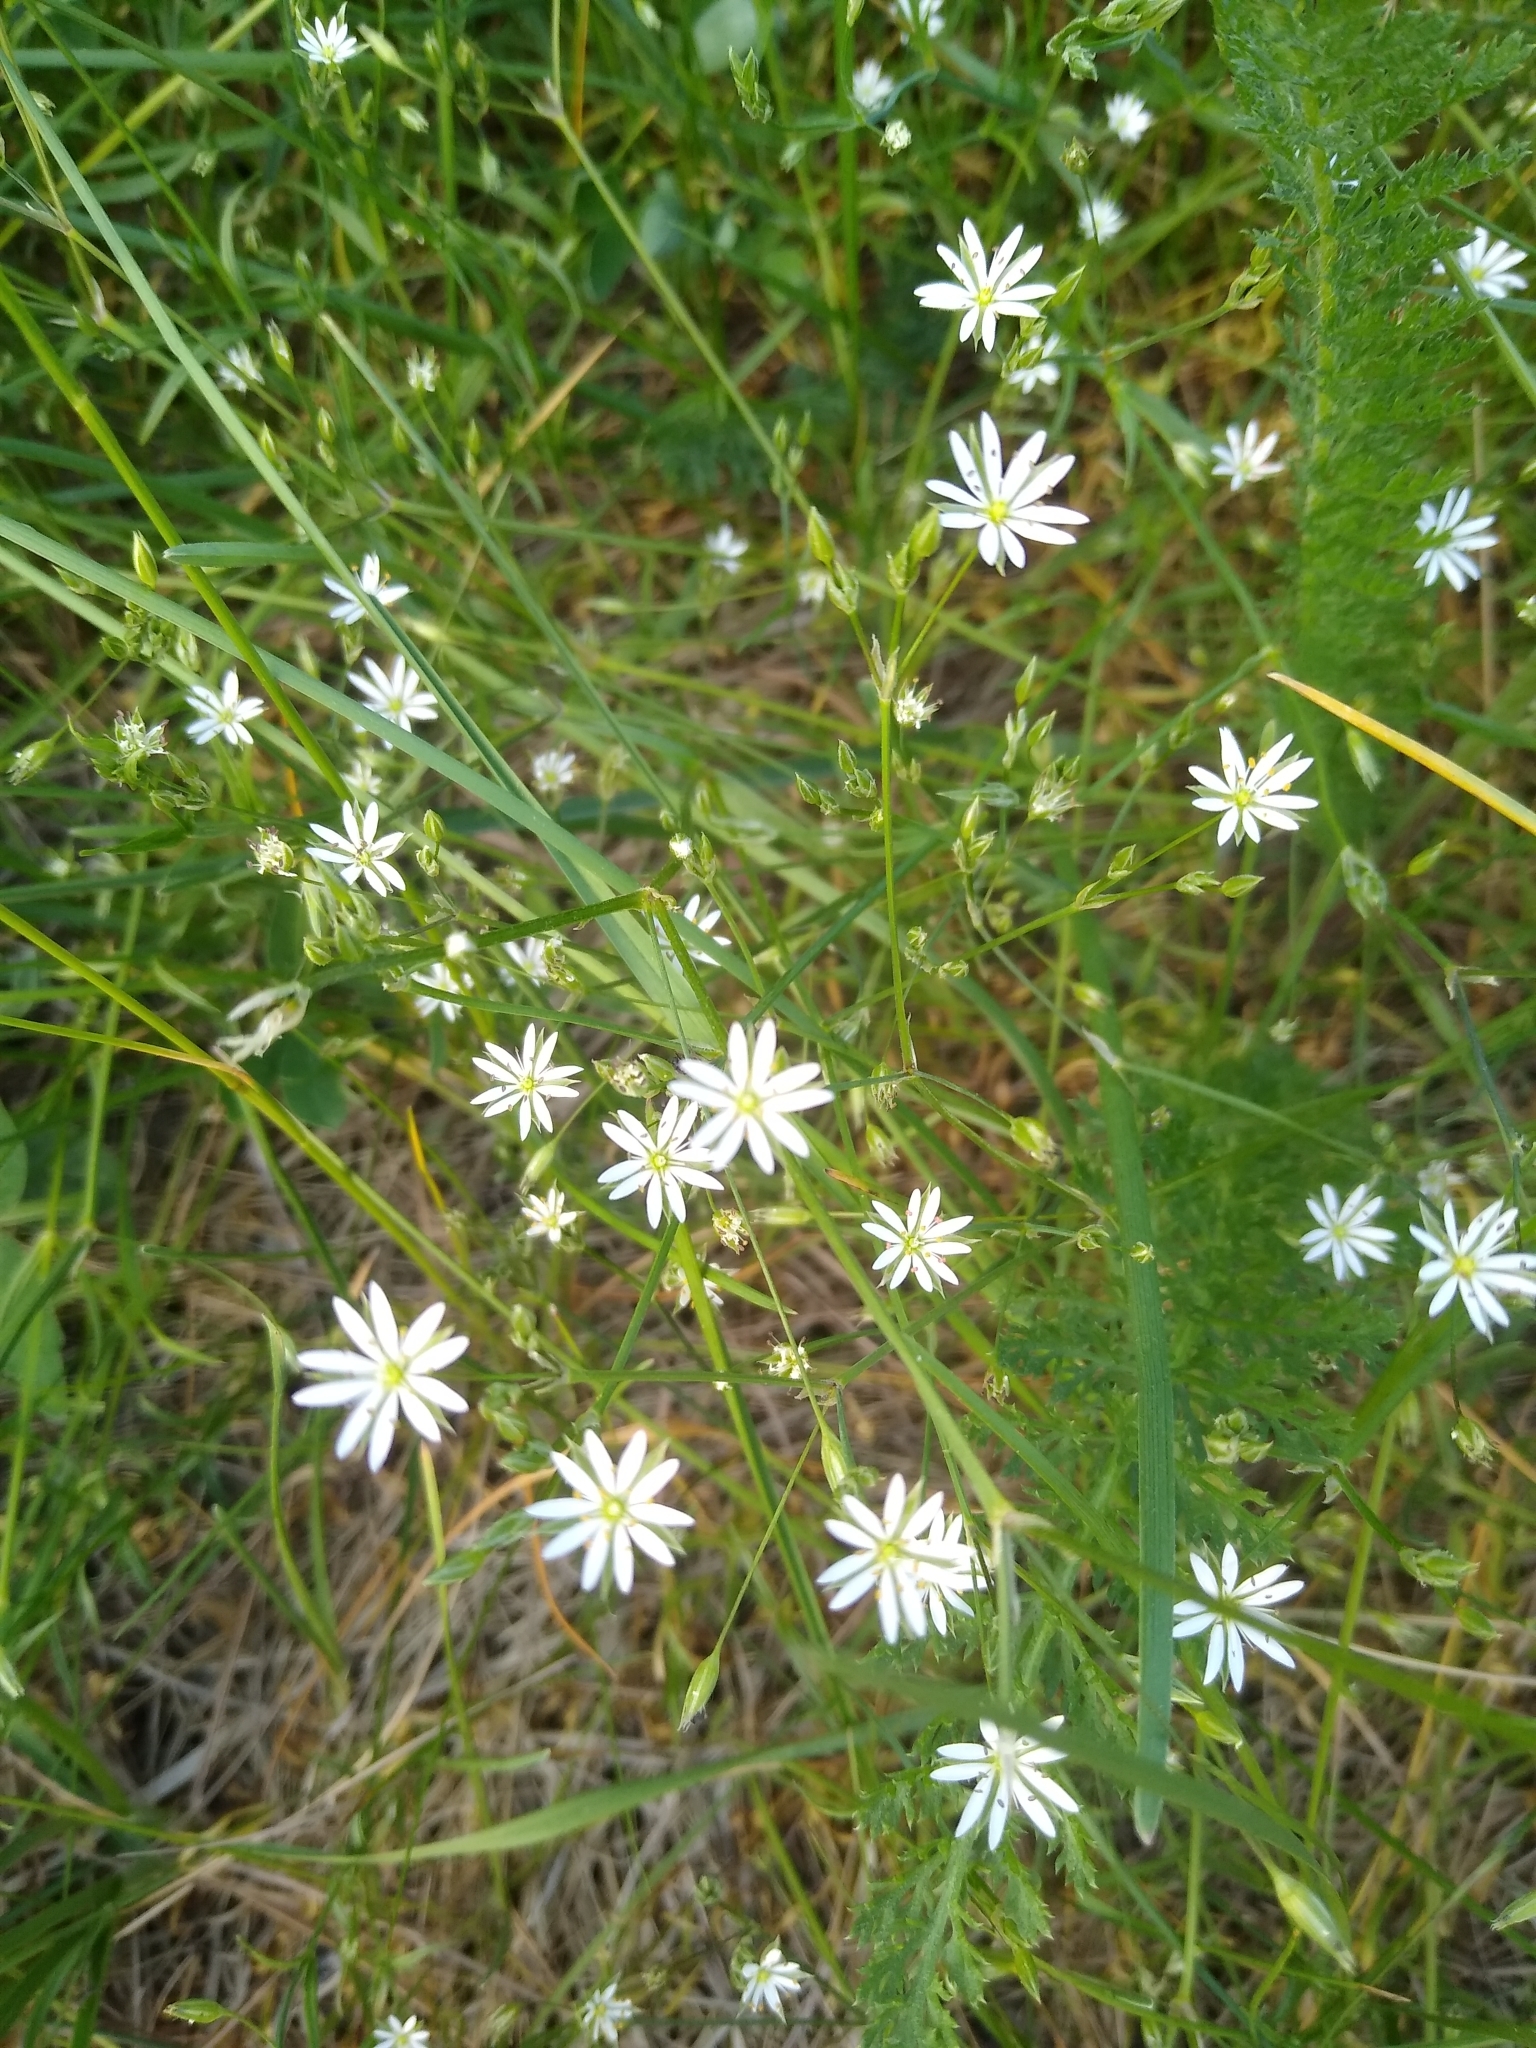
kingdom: Plantae
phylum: Tracheophyta
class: Magnoliopsida
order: Caryophyllales
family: Caryophyllaceae
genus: Stellaria
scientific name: Stellaria graminea
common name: Grass-like starwort
